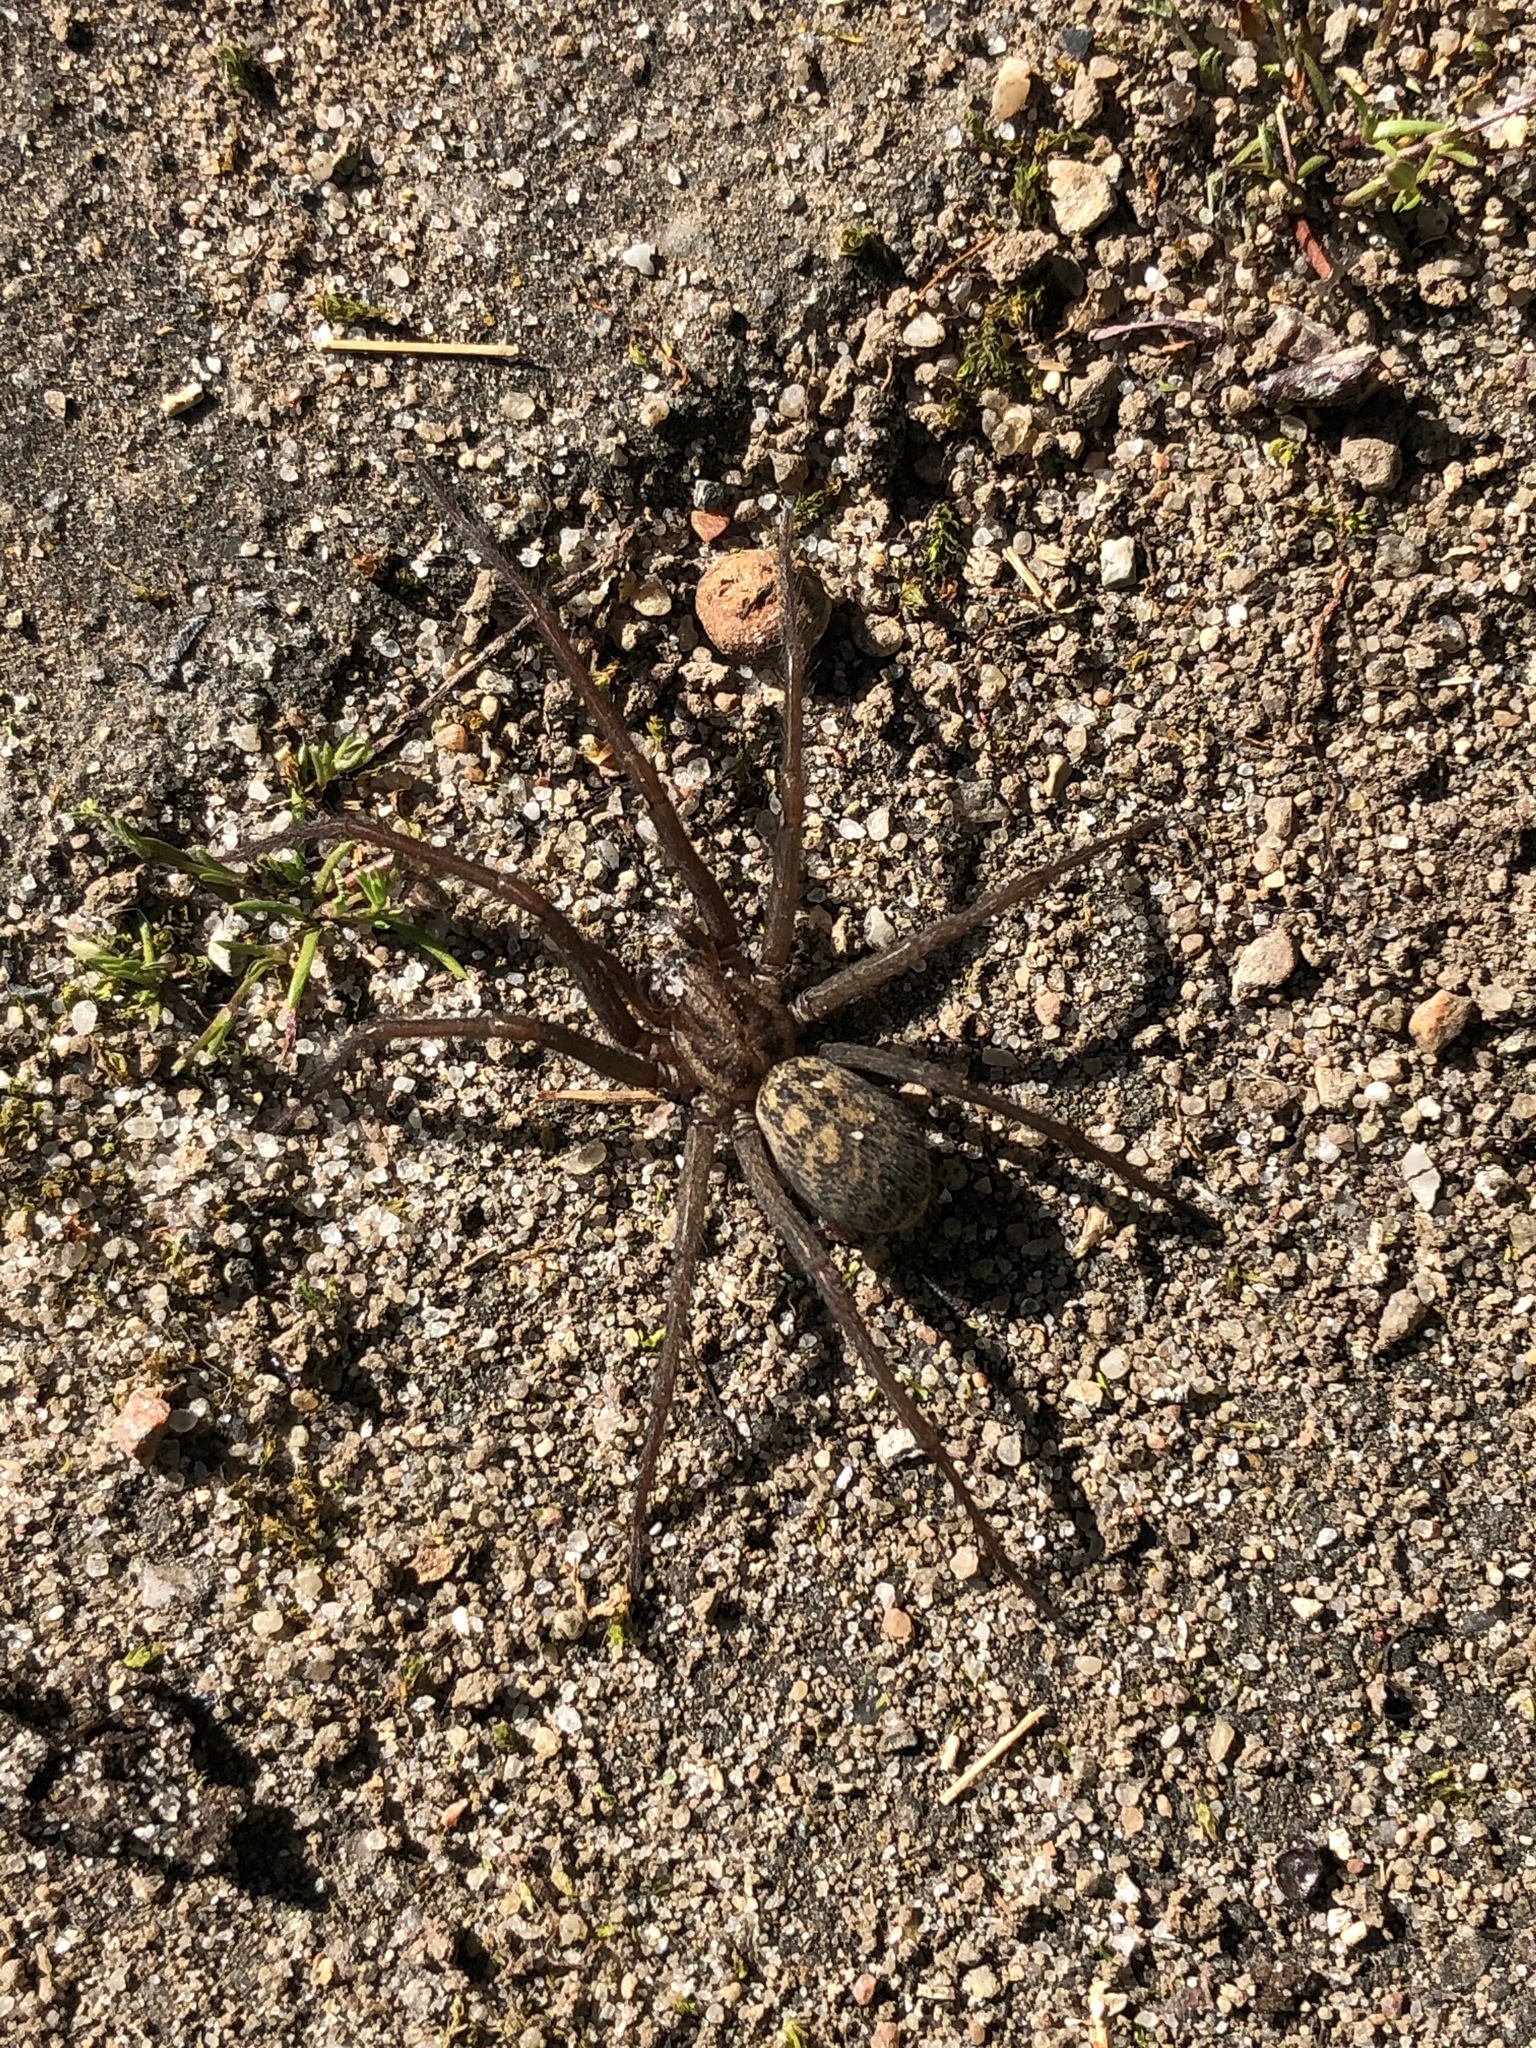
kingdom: Animalia
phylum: Arthropoda
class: Arachnida
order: Araneae
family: Agelenidae
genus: Eratigena
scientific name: Eratigena atrica
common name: Giant house spider
